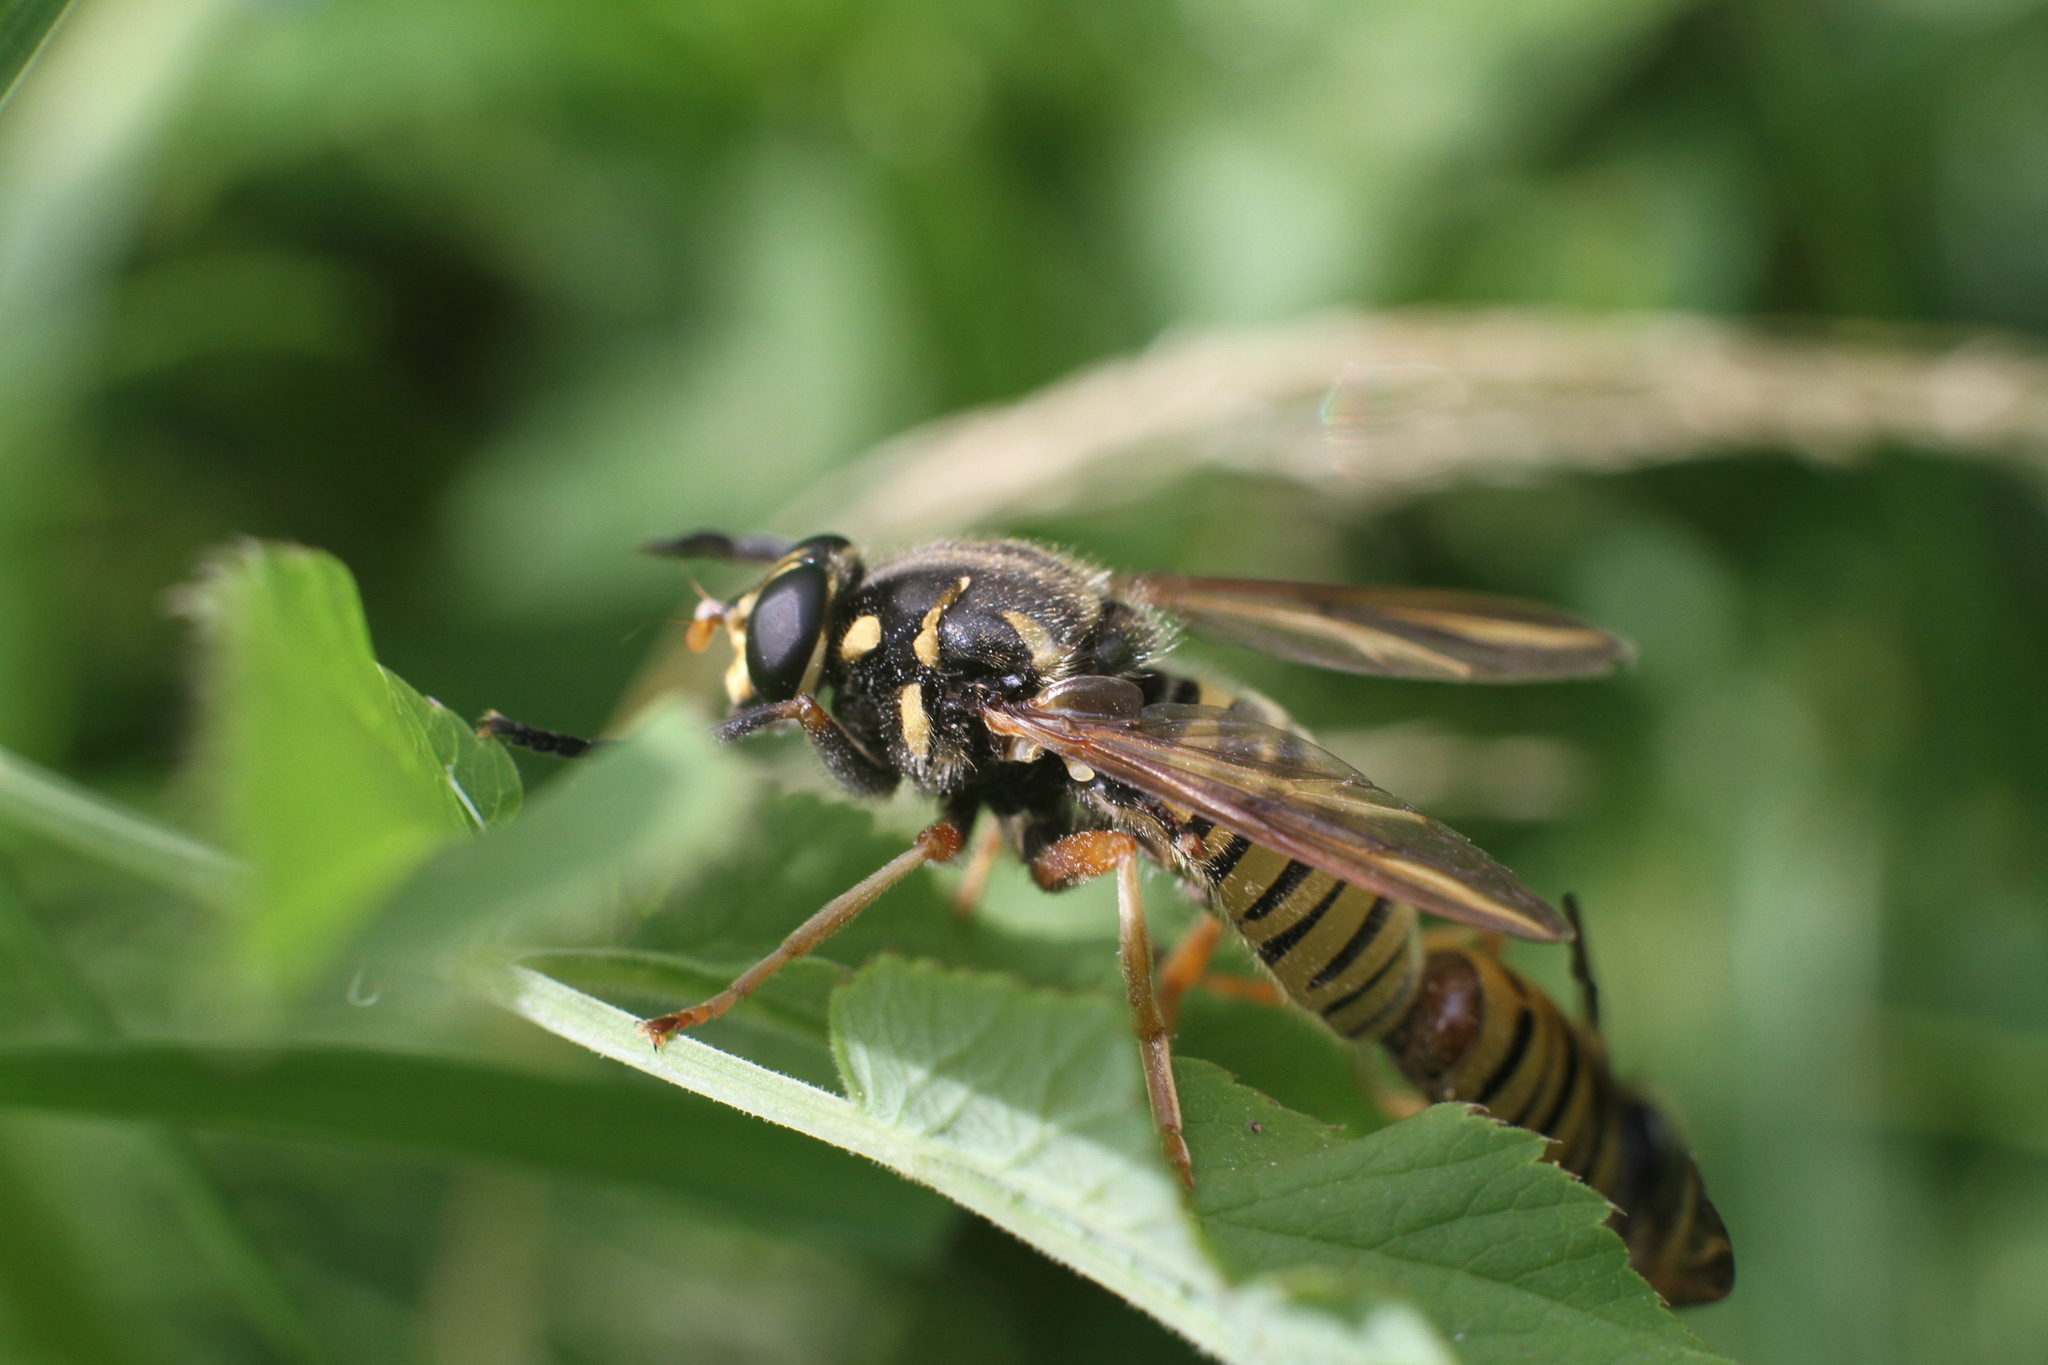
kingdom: Animalia
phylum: Arthropoda
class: Insecta
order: Diptera
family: Syrphidae
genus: Temnostoma
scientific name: Temnostoma vespiforme
